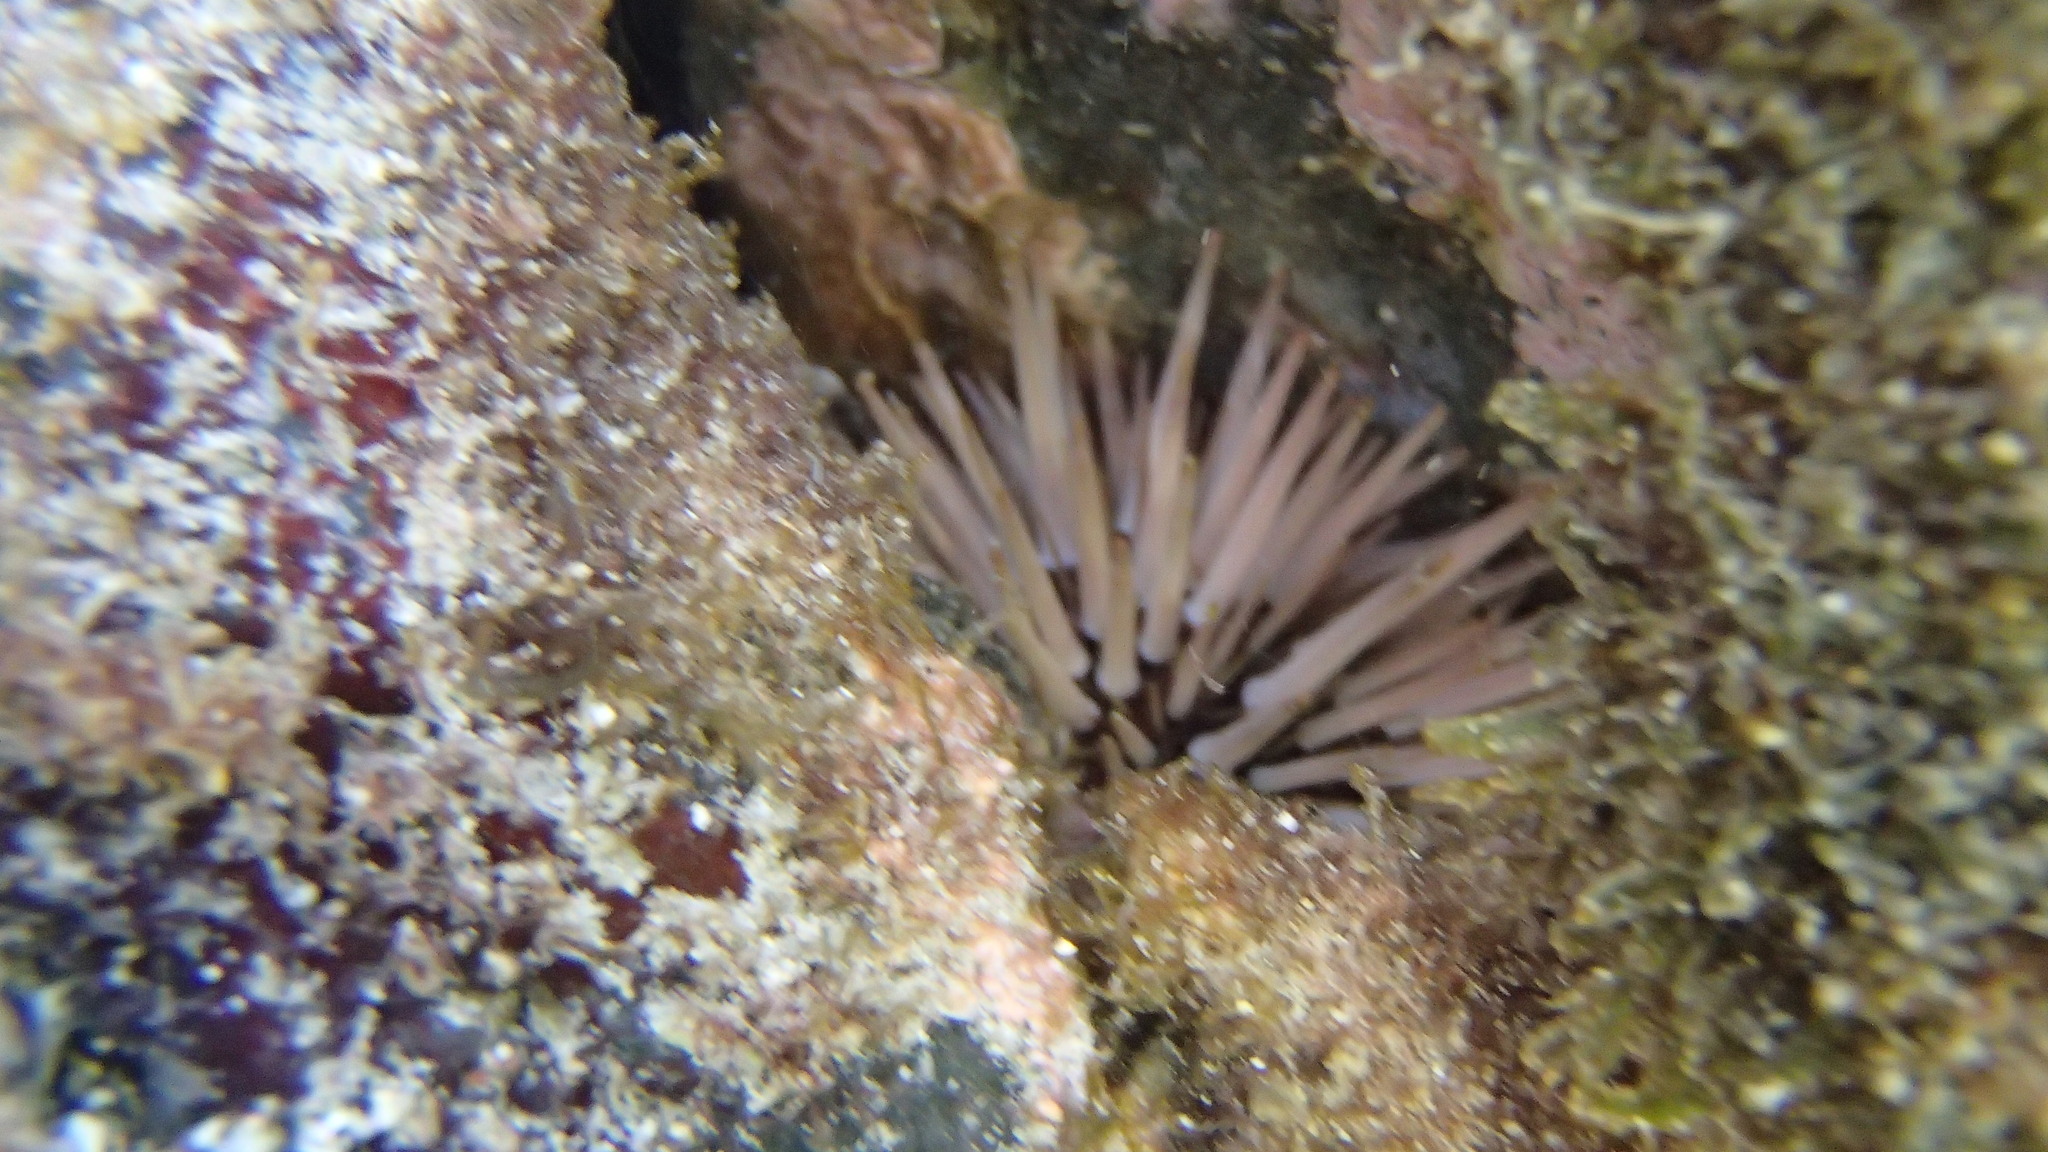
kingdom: Animalia
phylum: Echinodermata
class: Echinoidea
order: Camarodonta
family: Echinometridae
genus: Echinometra
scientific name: Echinometra mathaei
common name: Rock-boring urchin
